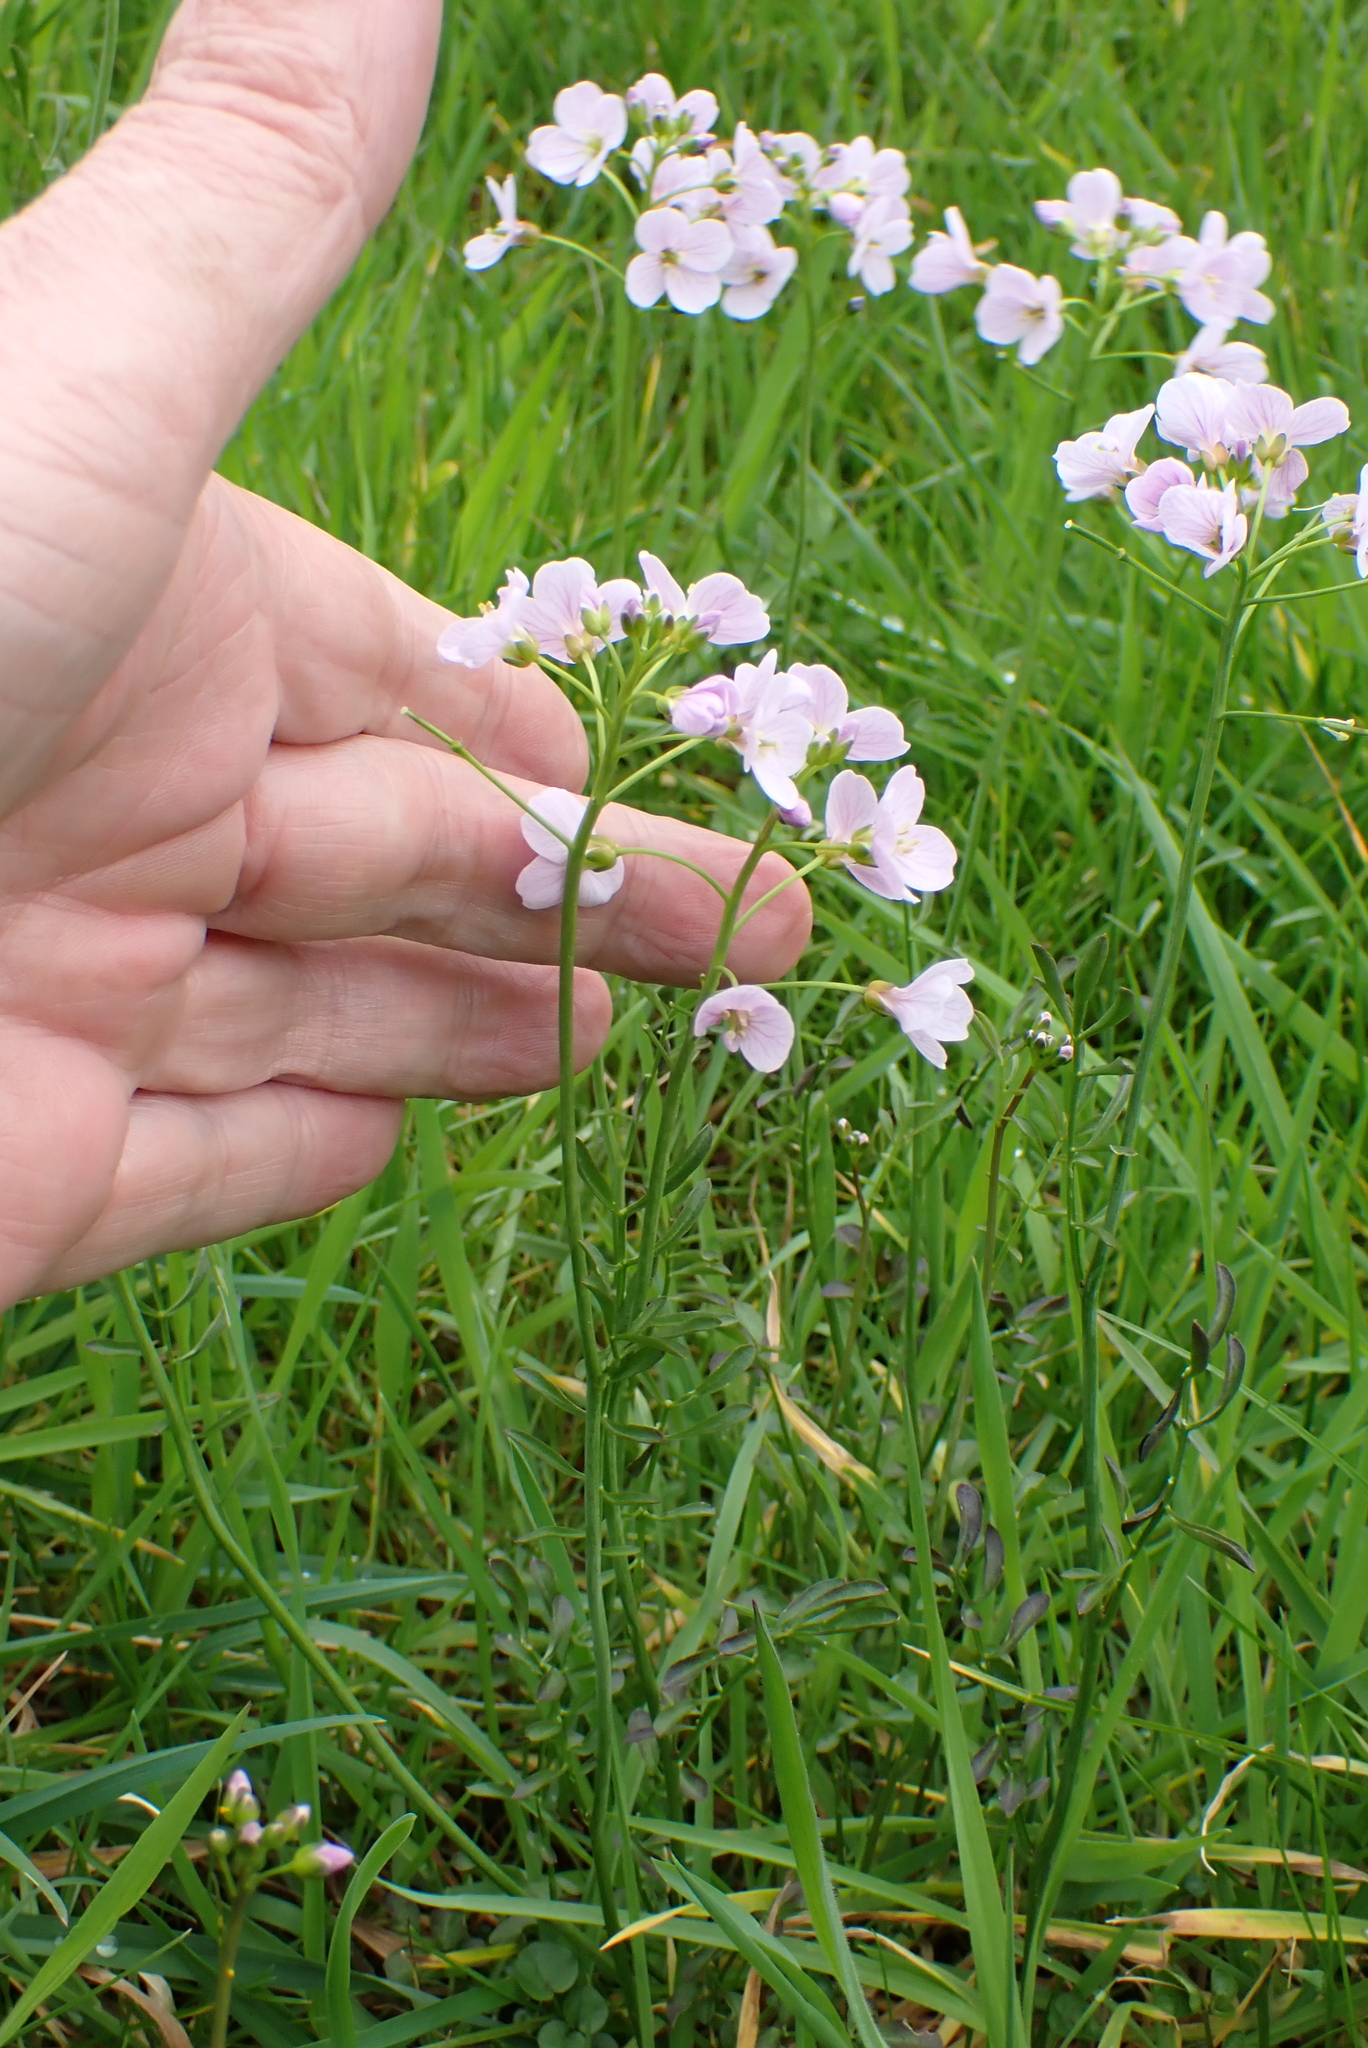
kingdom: Plantae
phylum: Tracheophyta
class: Magnoliopsida
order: Brassicales
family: Brassicaceae
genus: Cardamine
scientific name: Cardamine pratensis
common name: Cuckoo flower
